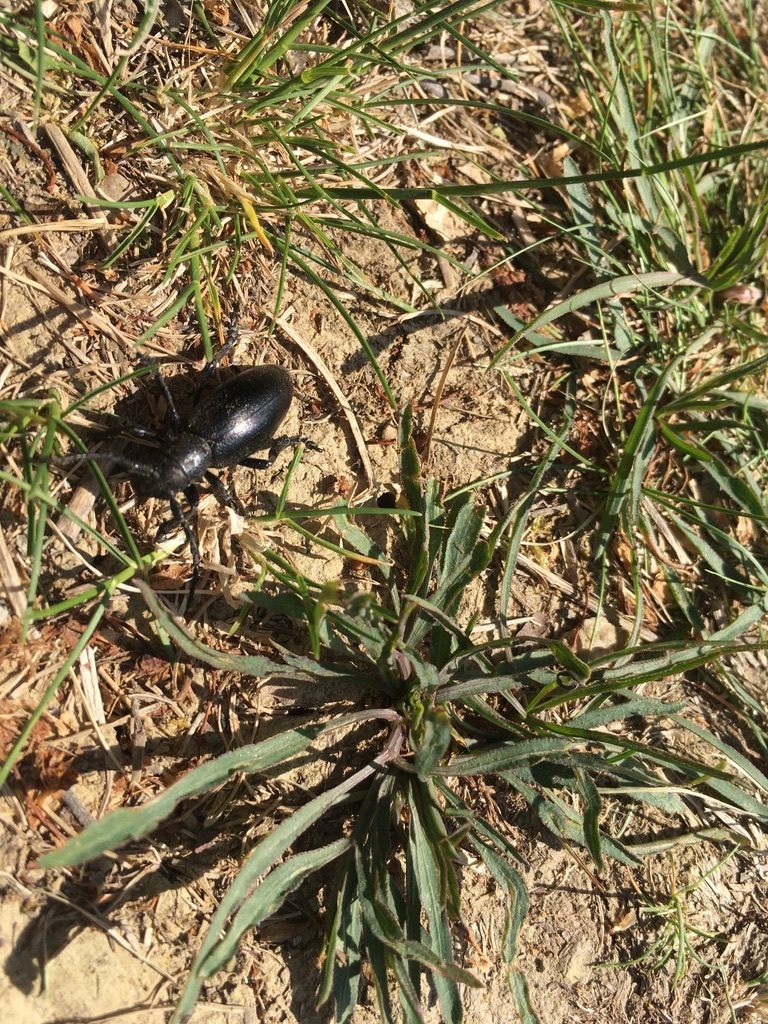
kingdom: Animalia
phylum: Arthropoda
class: Insecta
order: Coleoptera
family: Cerambycidae
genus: Dorcadion
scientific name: Dorcadion aethiops
